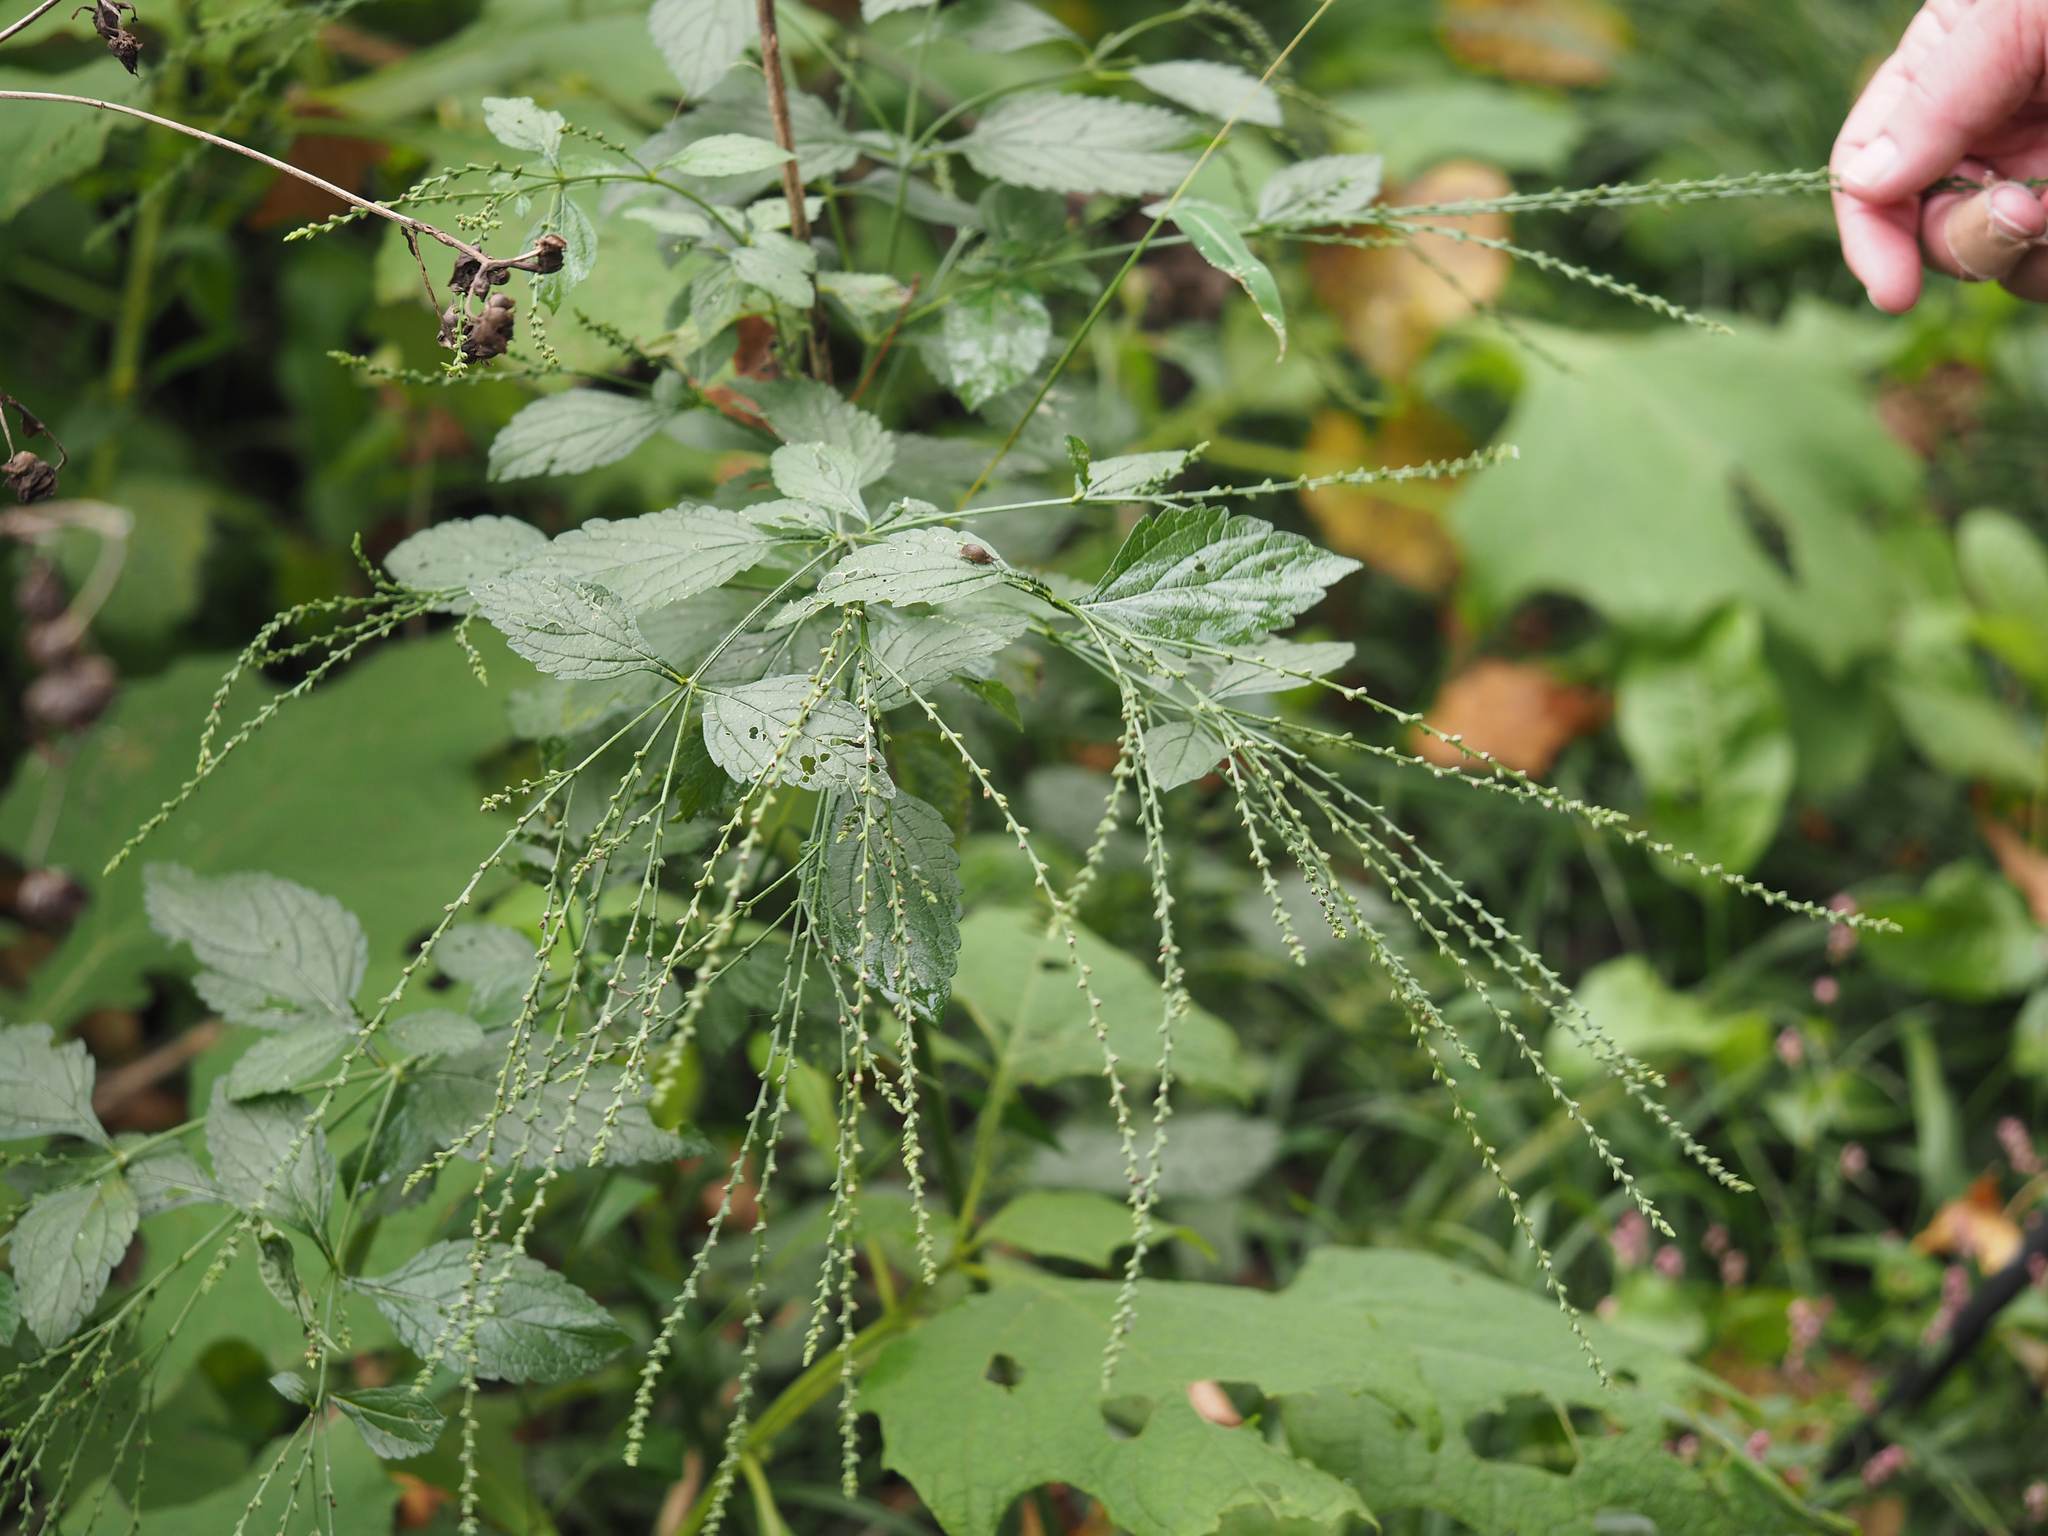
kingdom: Plantae
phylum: Tracheophyta
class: Magnoliopsida
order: Lamiales
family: Verbenaceae
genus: Verbena
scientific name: Verbena urticifolia
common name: Nettle-leaved vervain
